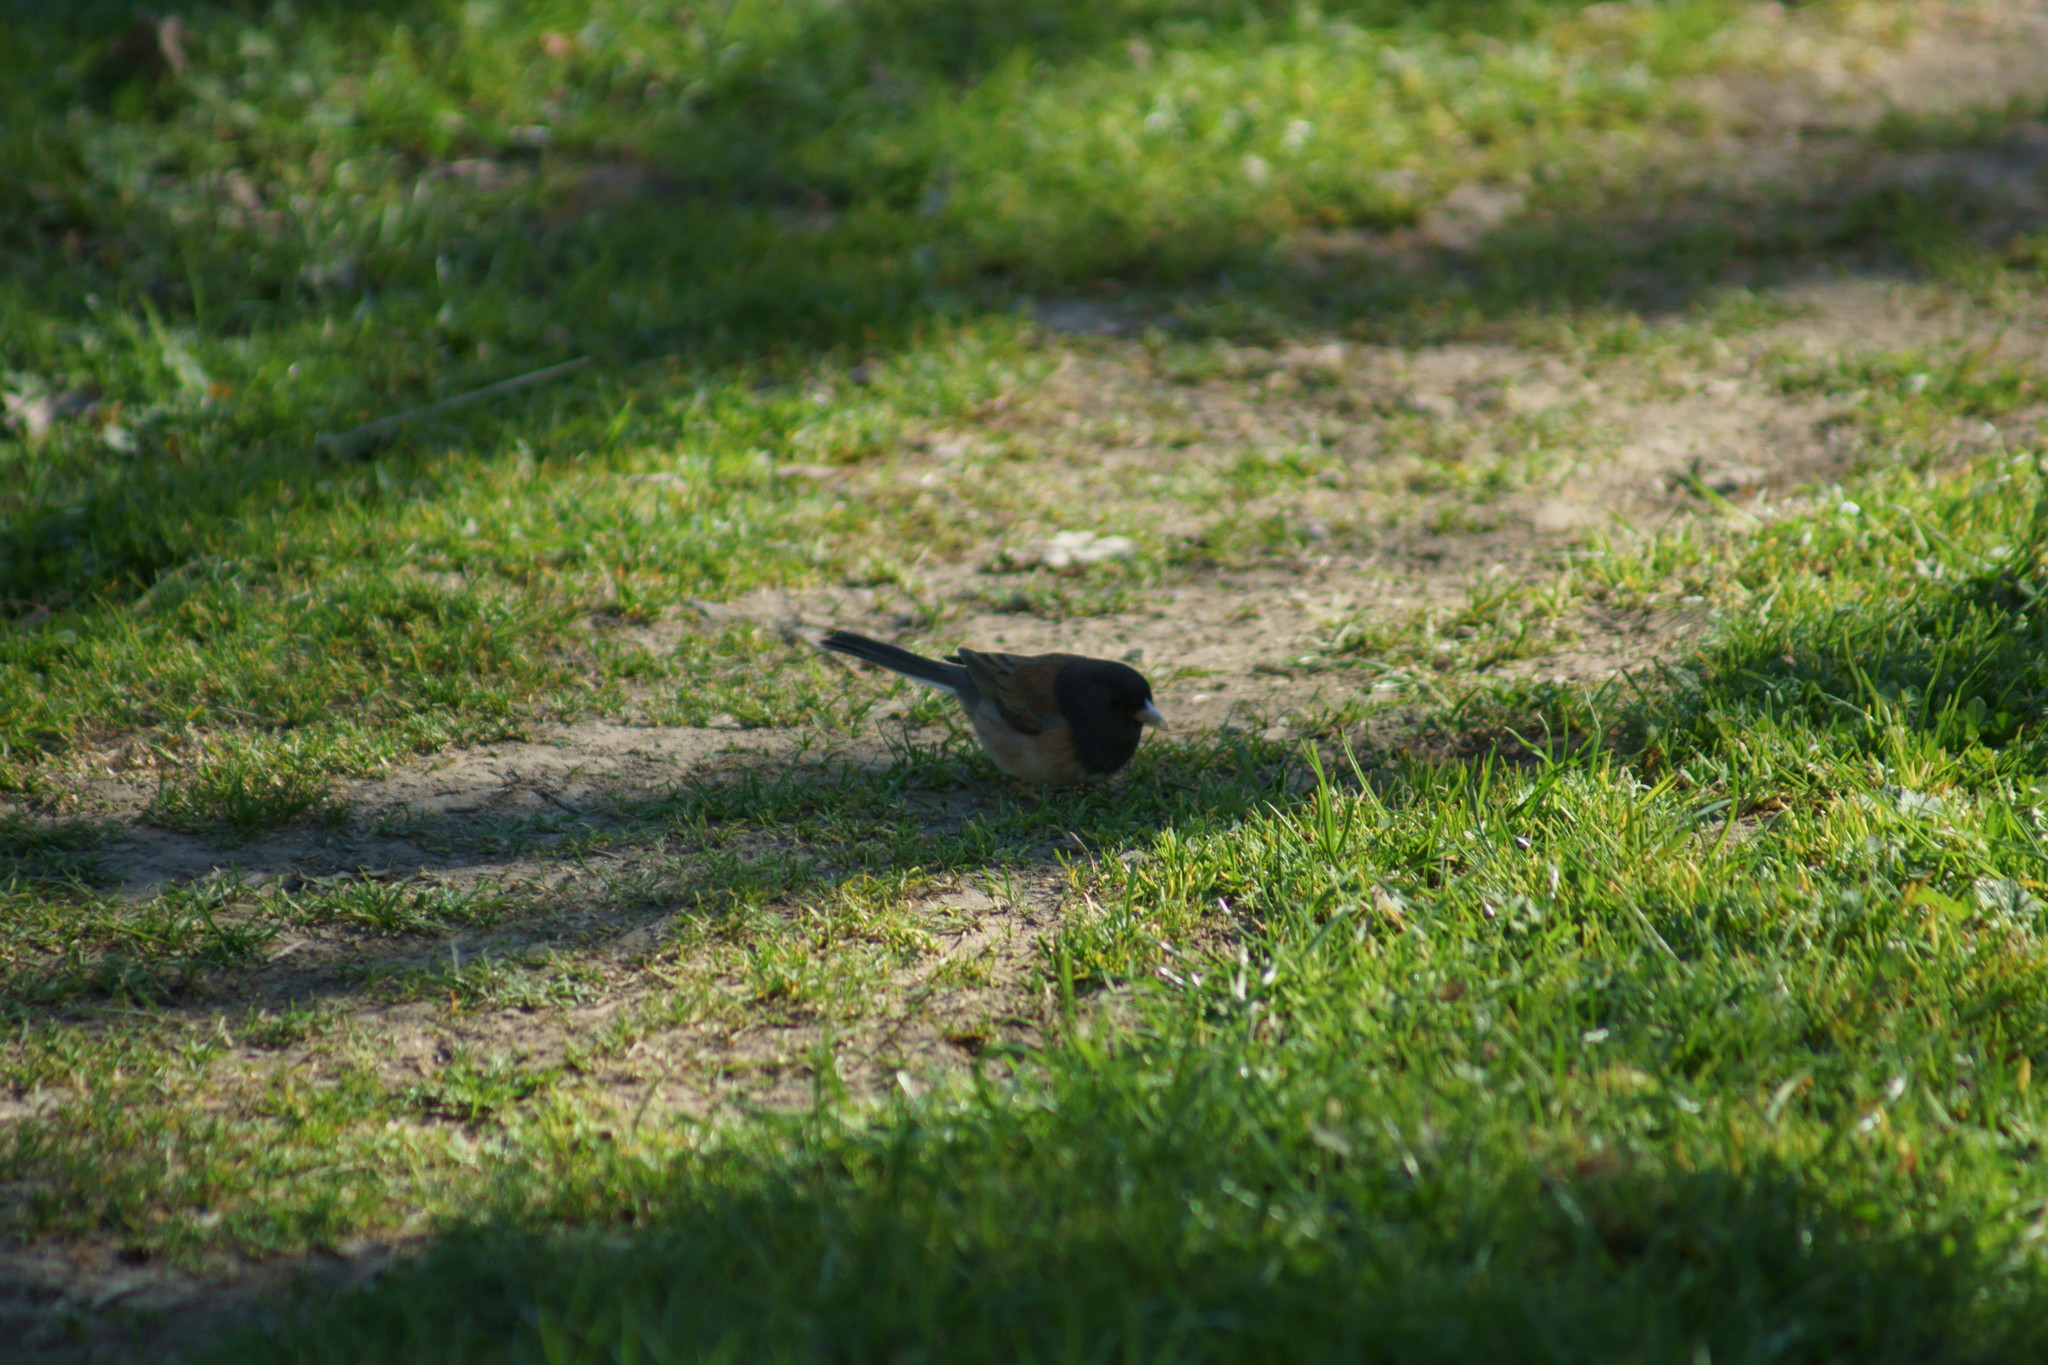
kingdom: Animalia
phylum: Chordata
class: Aves
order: Passeriformes
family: Passerellidae
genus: Junco
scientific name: Junco hyemalis
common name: Dark-eyed junco
